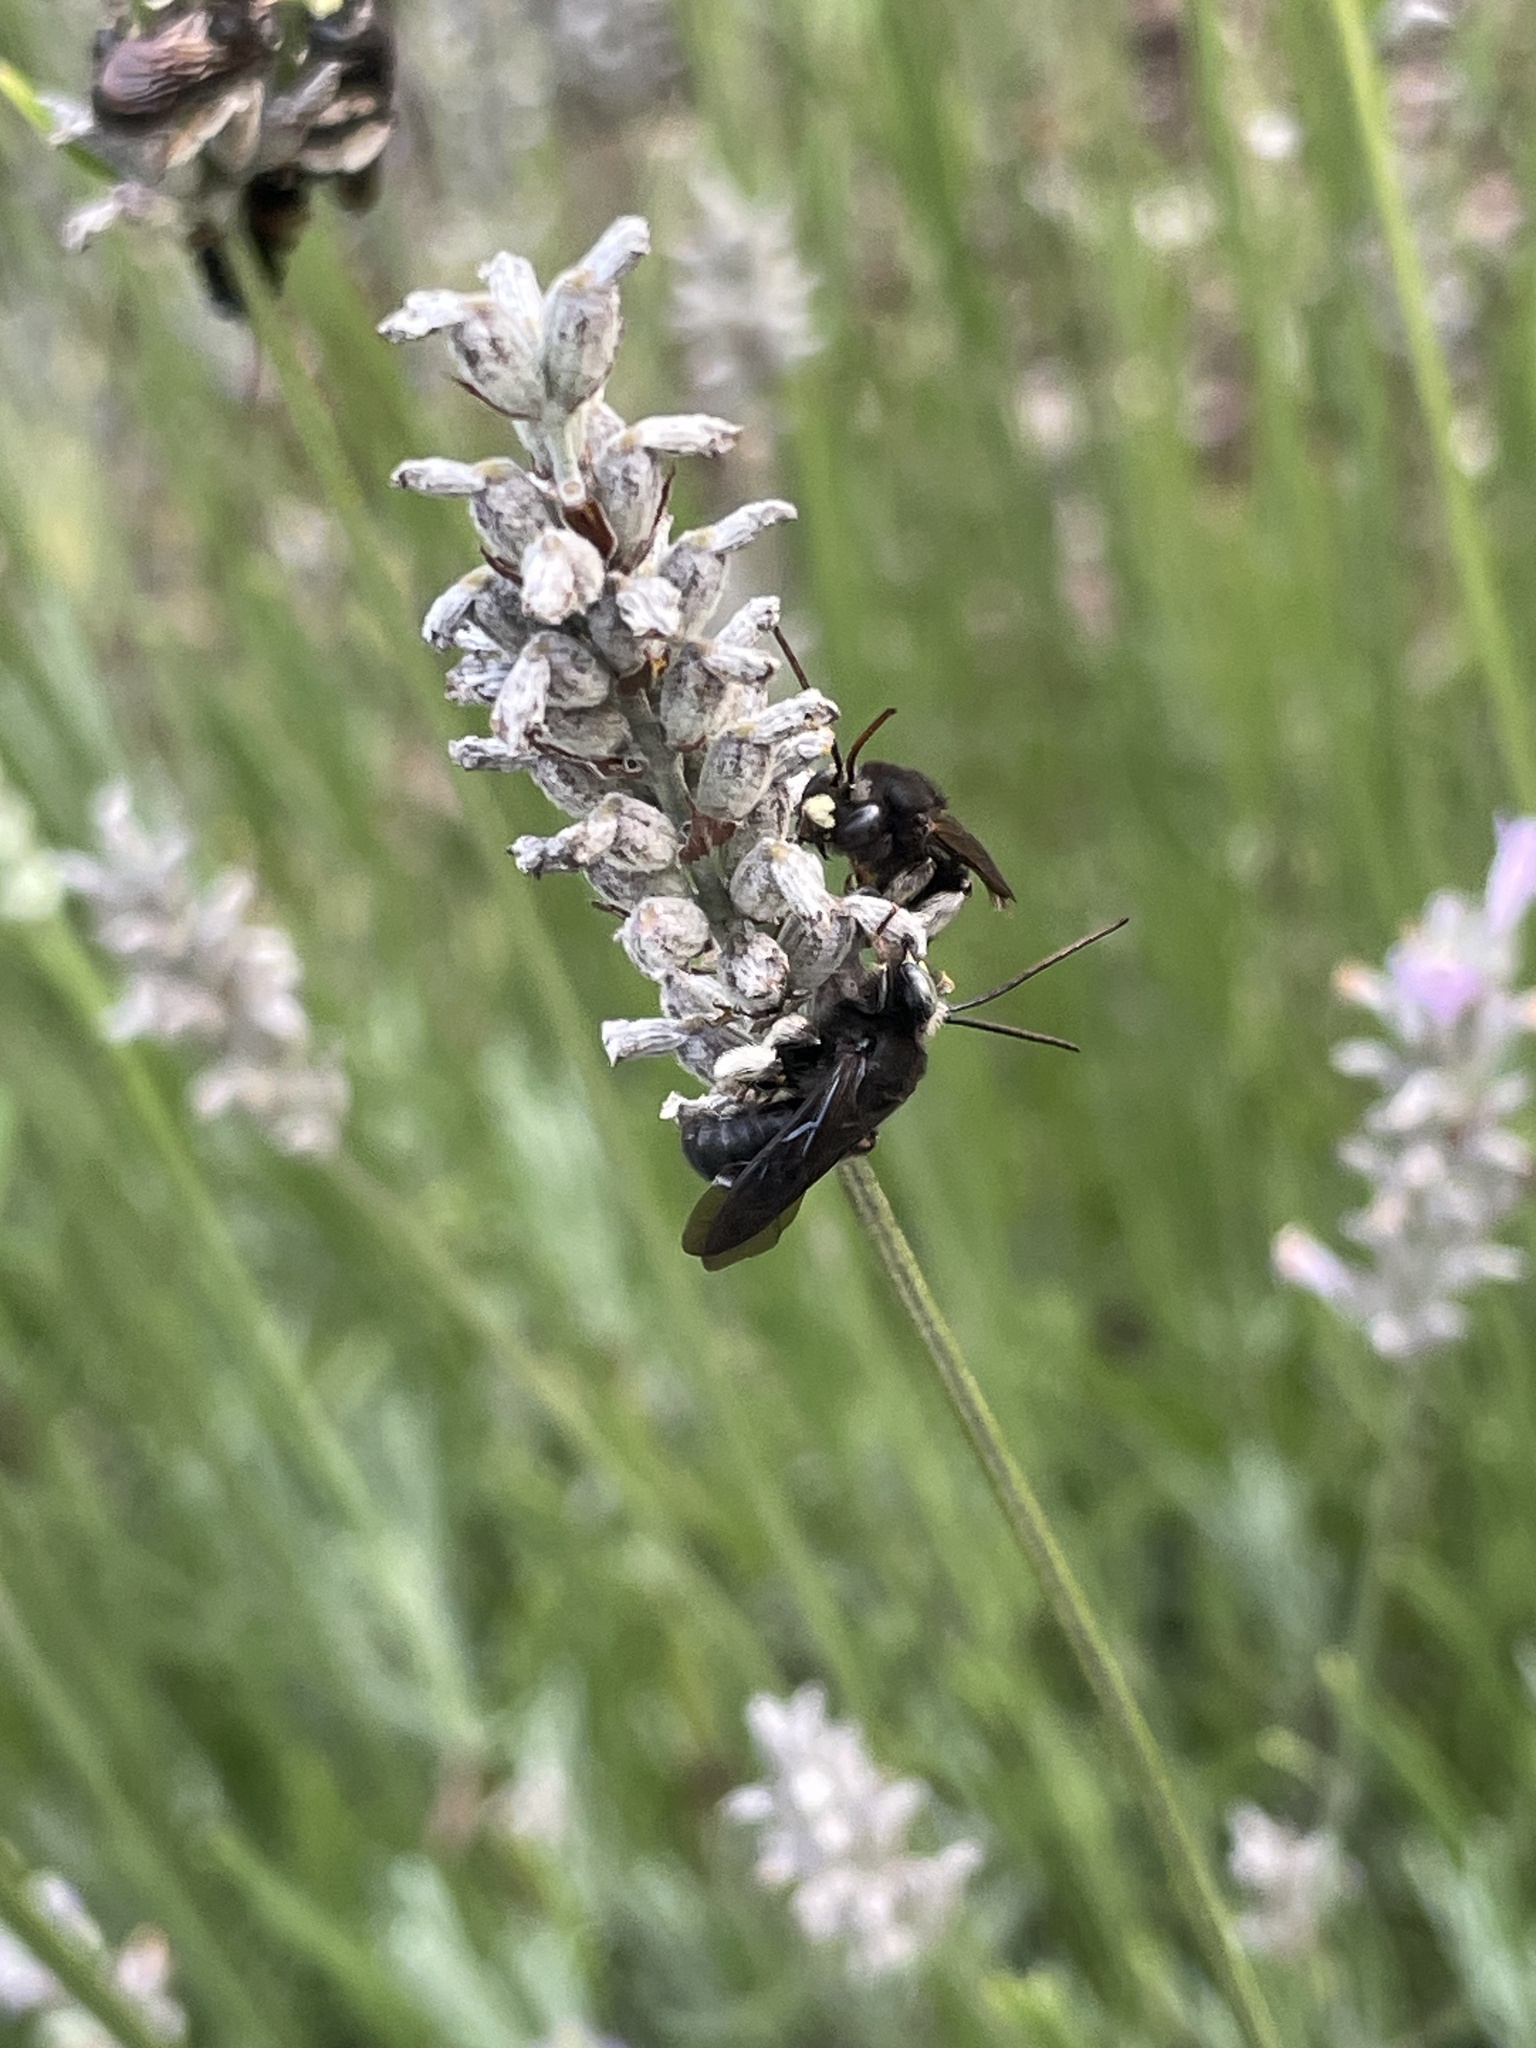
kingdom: Animalia
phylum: Arthropoda
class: Insecta
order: Hymenoptera
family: Apidae
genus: Melissodes
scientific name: Melissodes bimaculatus
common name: Two-spotted long-horned bee
